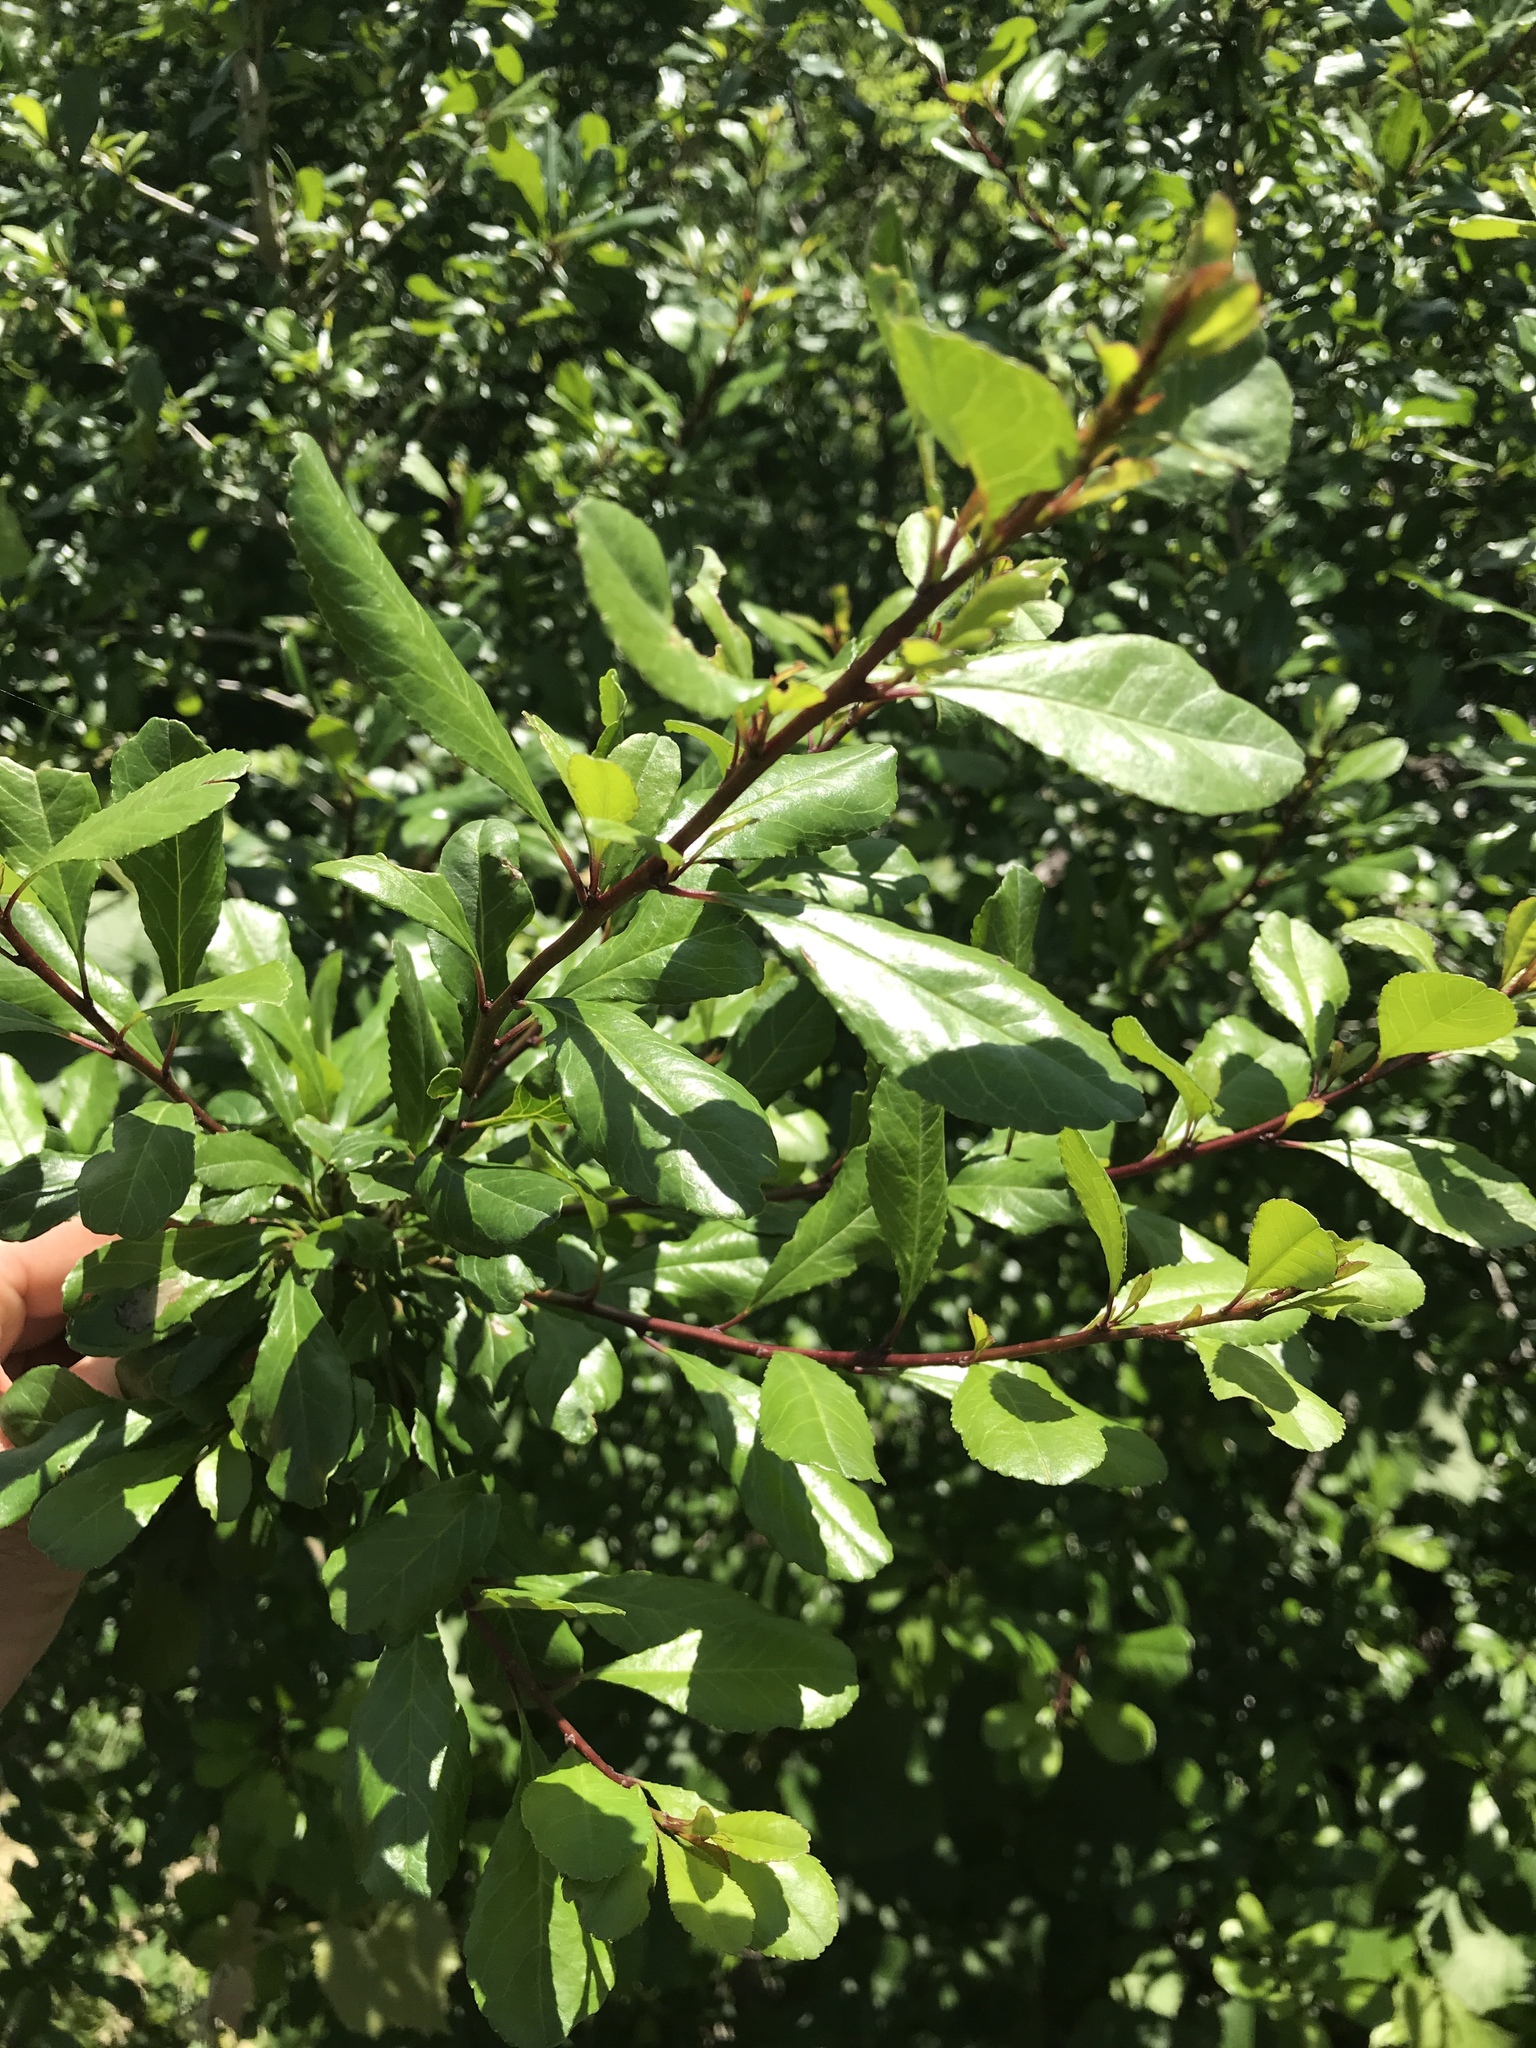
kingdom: Plantae
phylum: Tracheophyta
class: Magnoliopsida
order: Aquifoliales
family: Aquifoliaceae
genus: Ilex
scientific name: Ilex decidua
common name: Possum-haw
